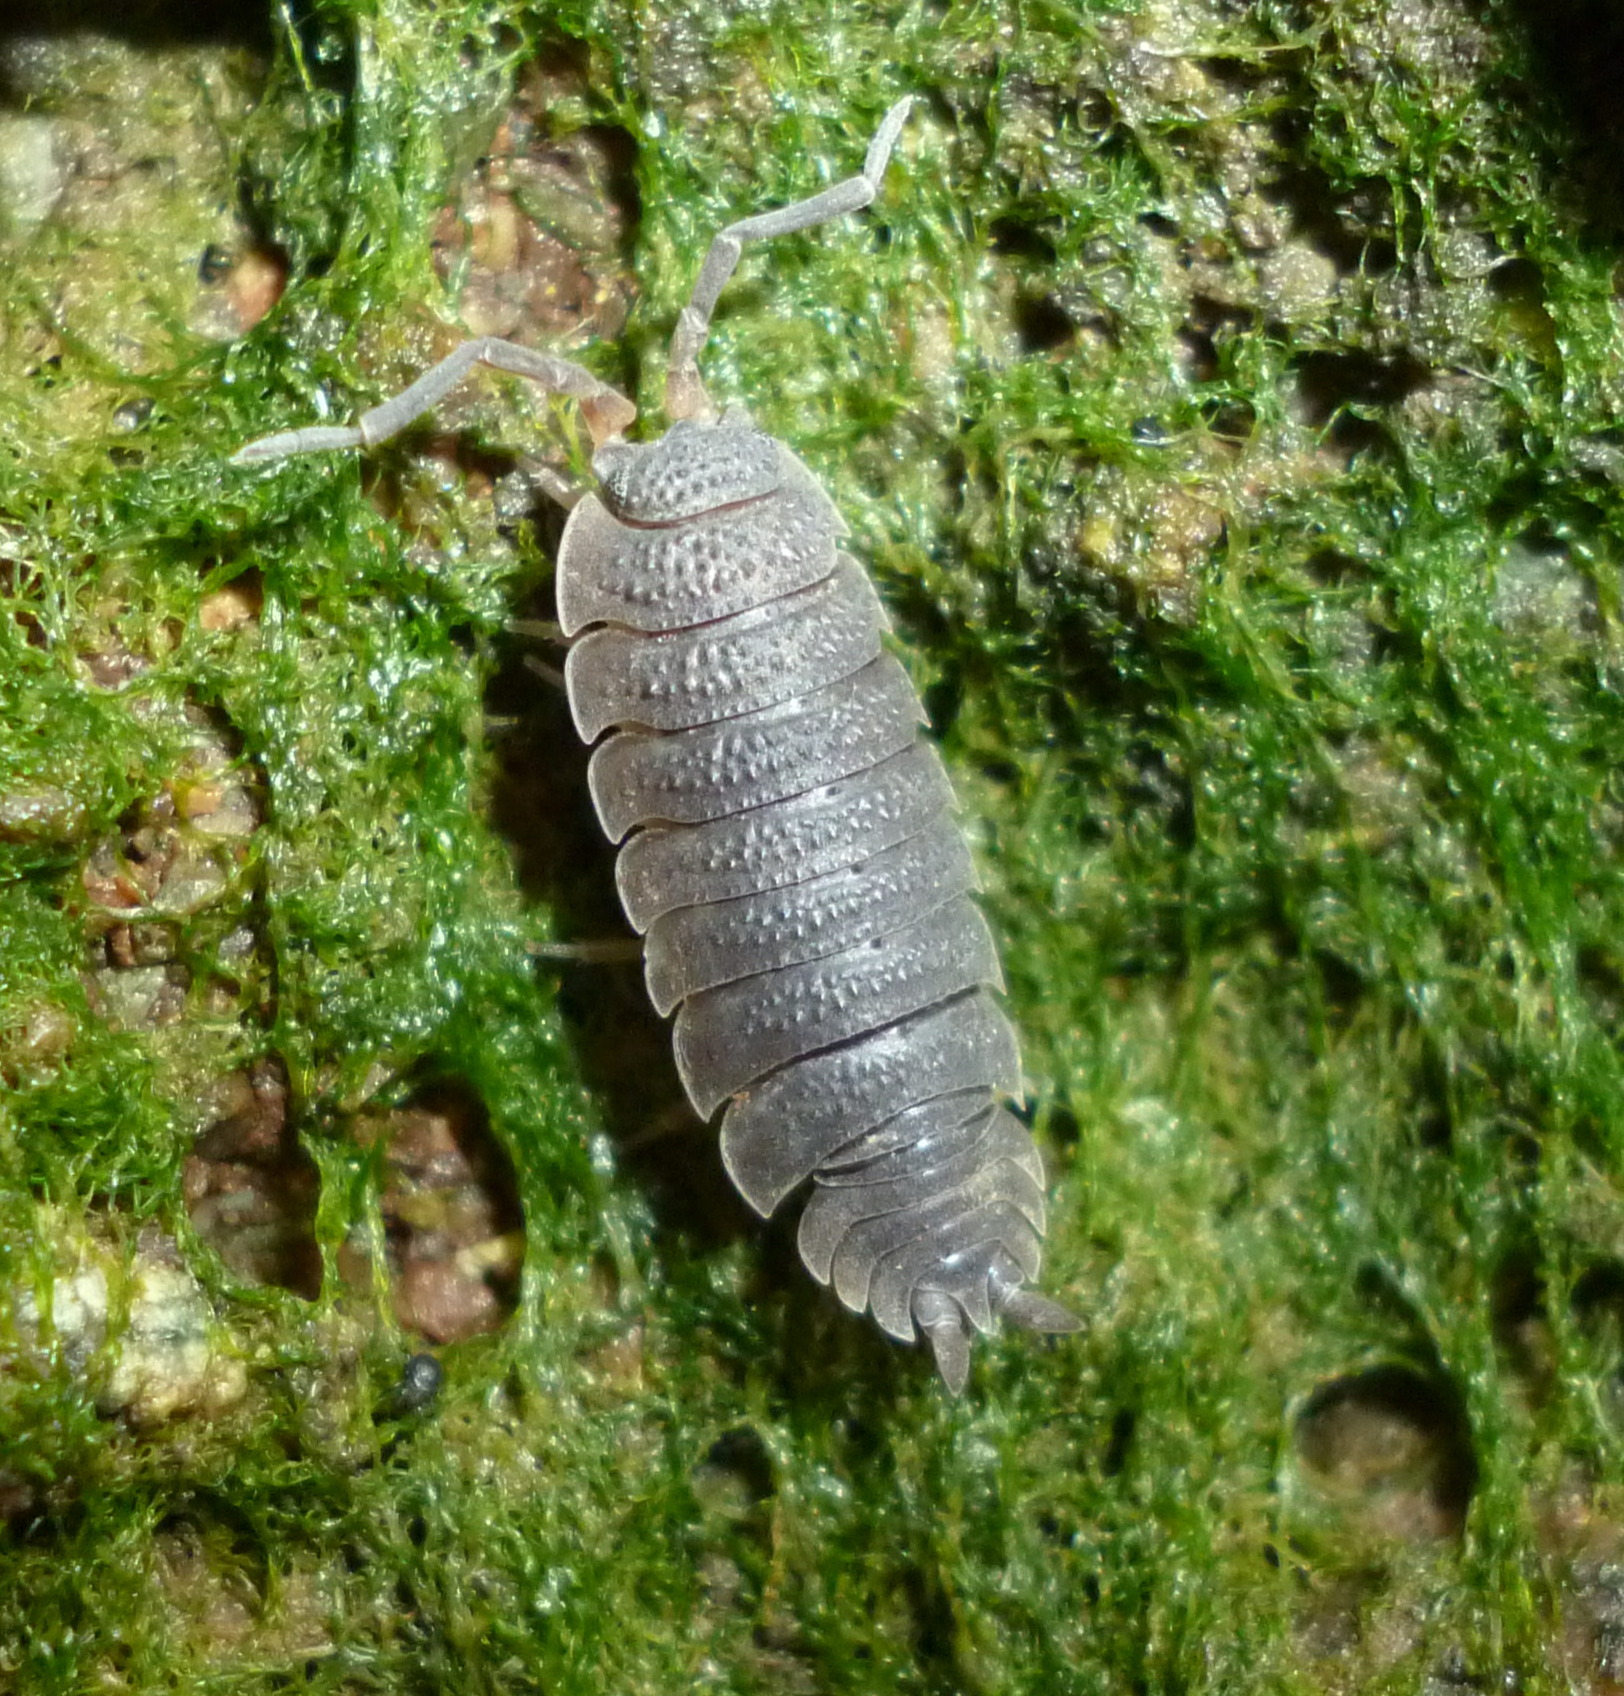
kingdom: Animalia
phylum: Arthropoda
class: Malacostraca
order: Isopoda
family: Porcellionidae
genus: Porcellio
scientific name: Porcellio scaber
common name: Common rough woodlouse
